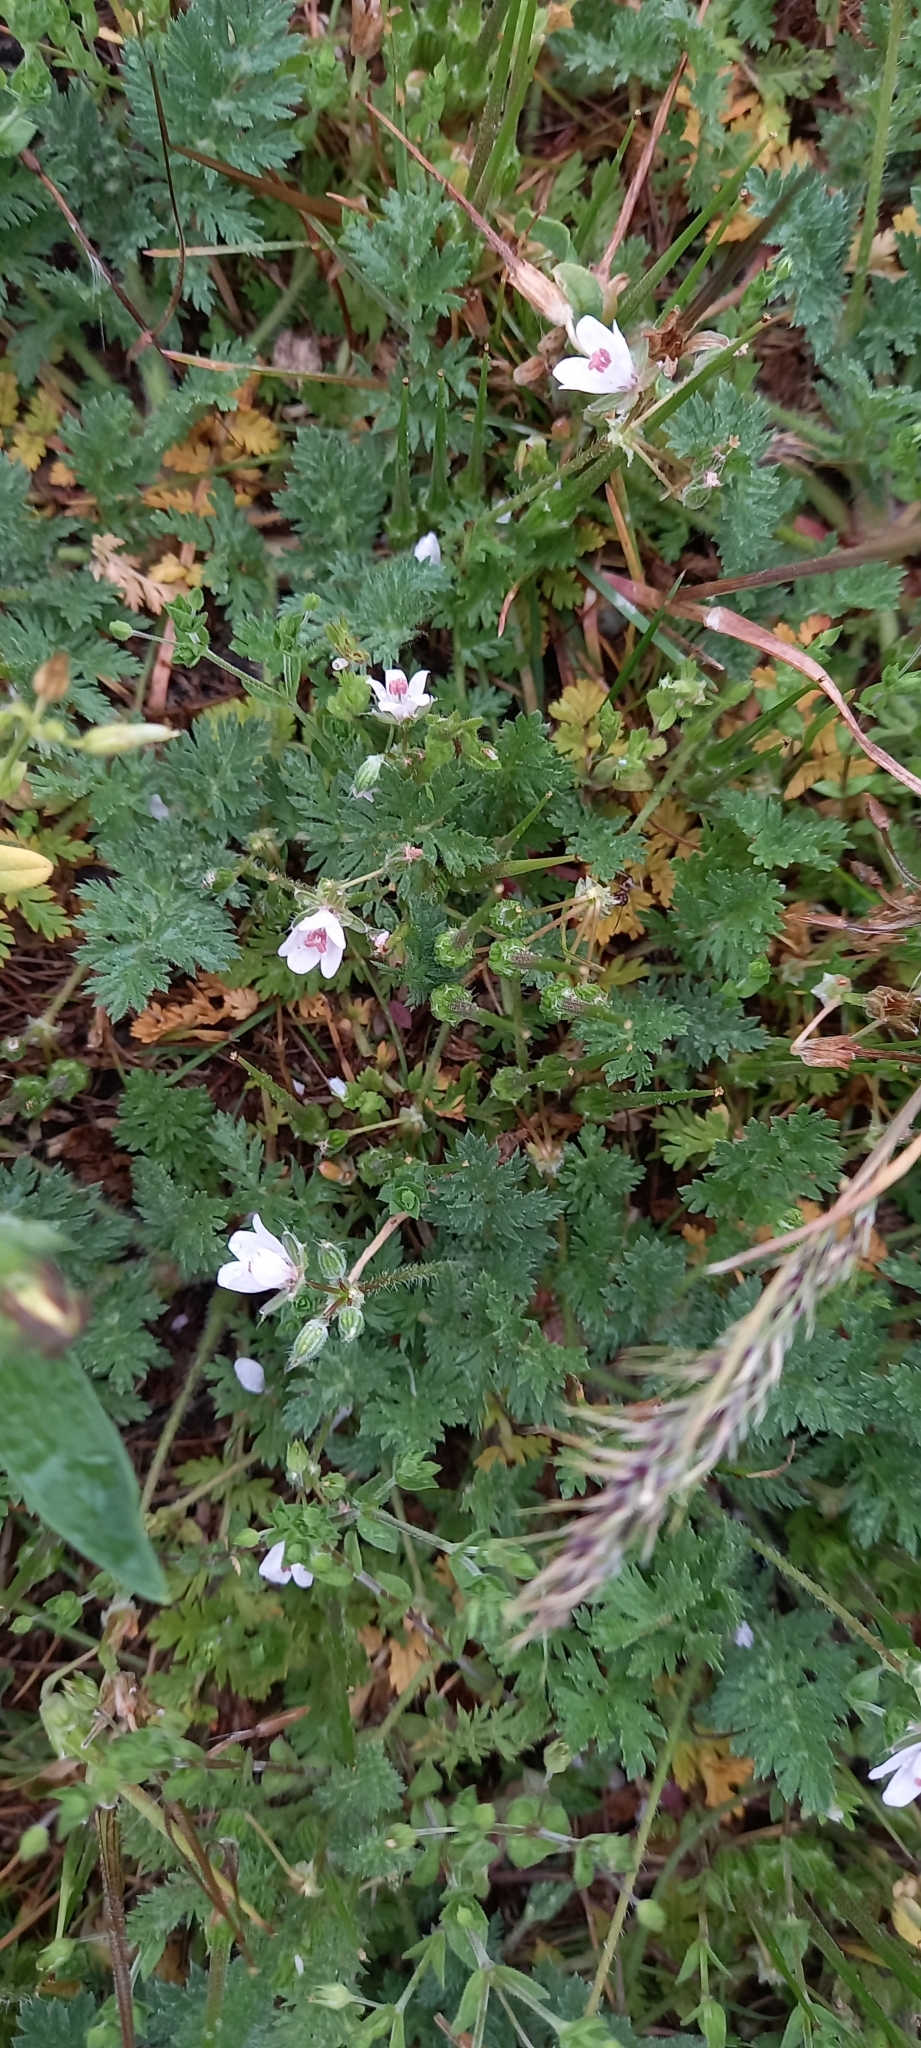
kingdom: Plantae
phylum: Tracheophyta
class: Magnoliopsida
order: Geraniales
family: Geraniaceae
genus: Erodium
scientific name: Erodium cicutarium
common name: Common stork's-bill
